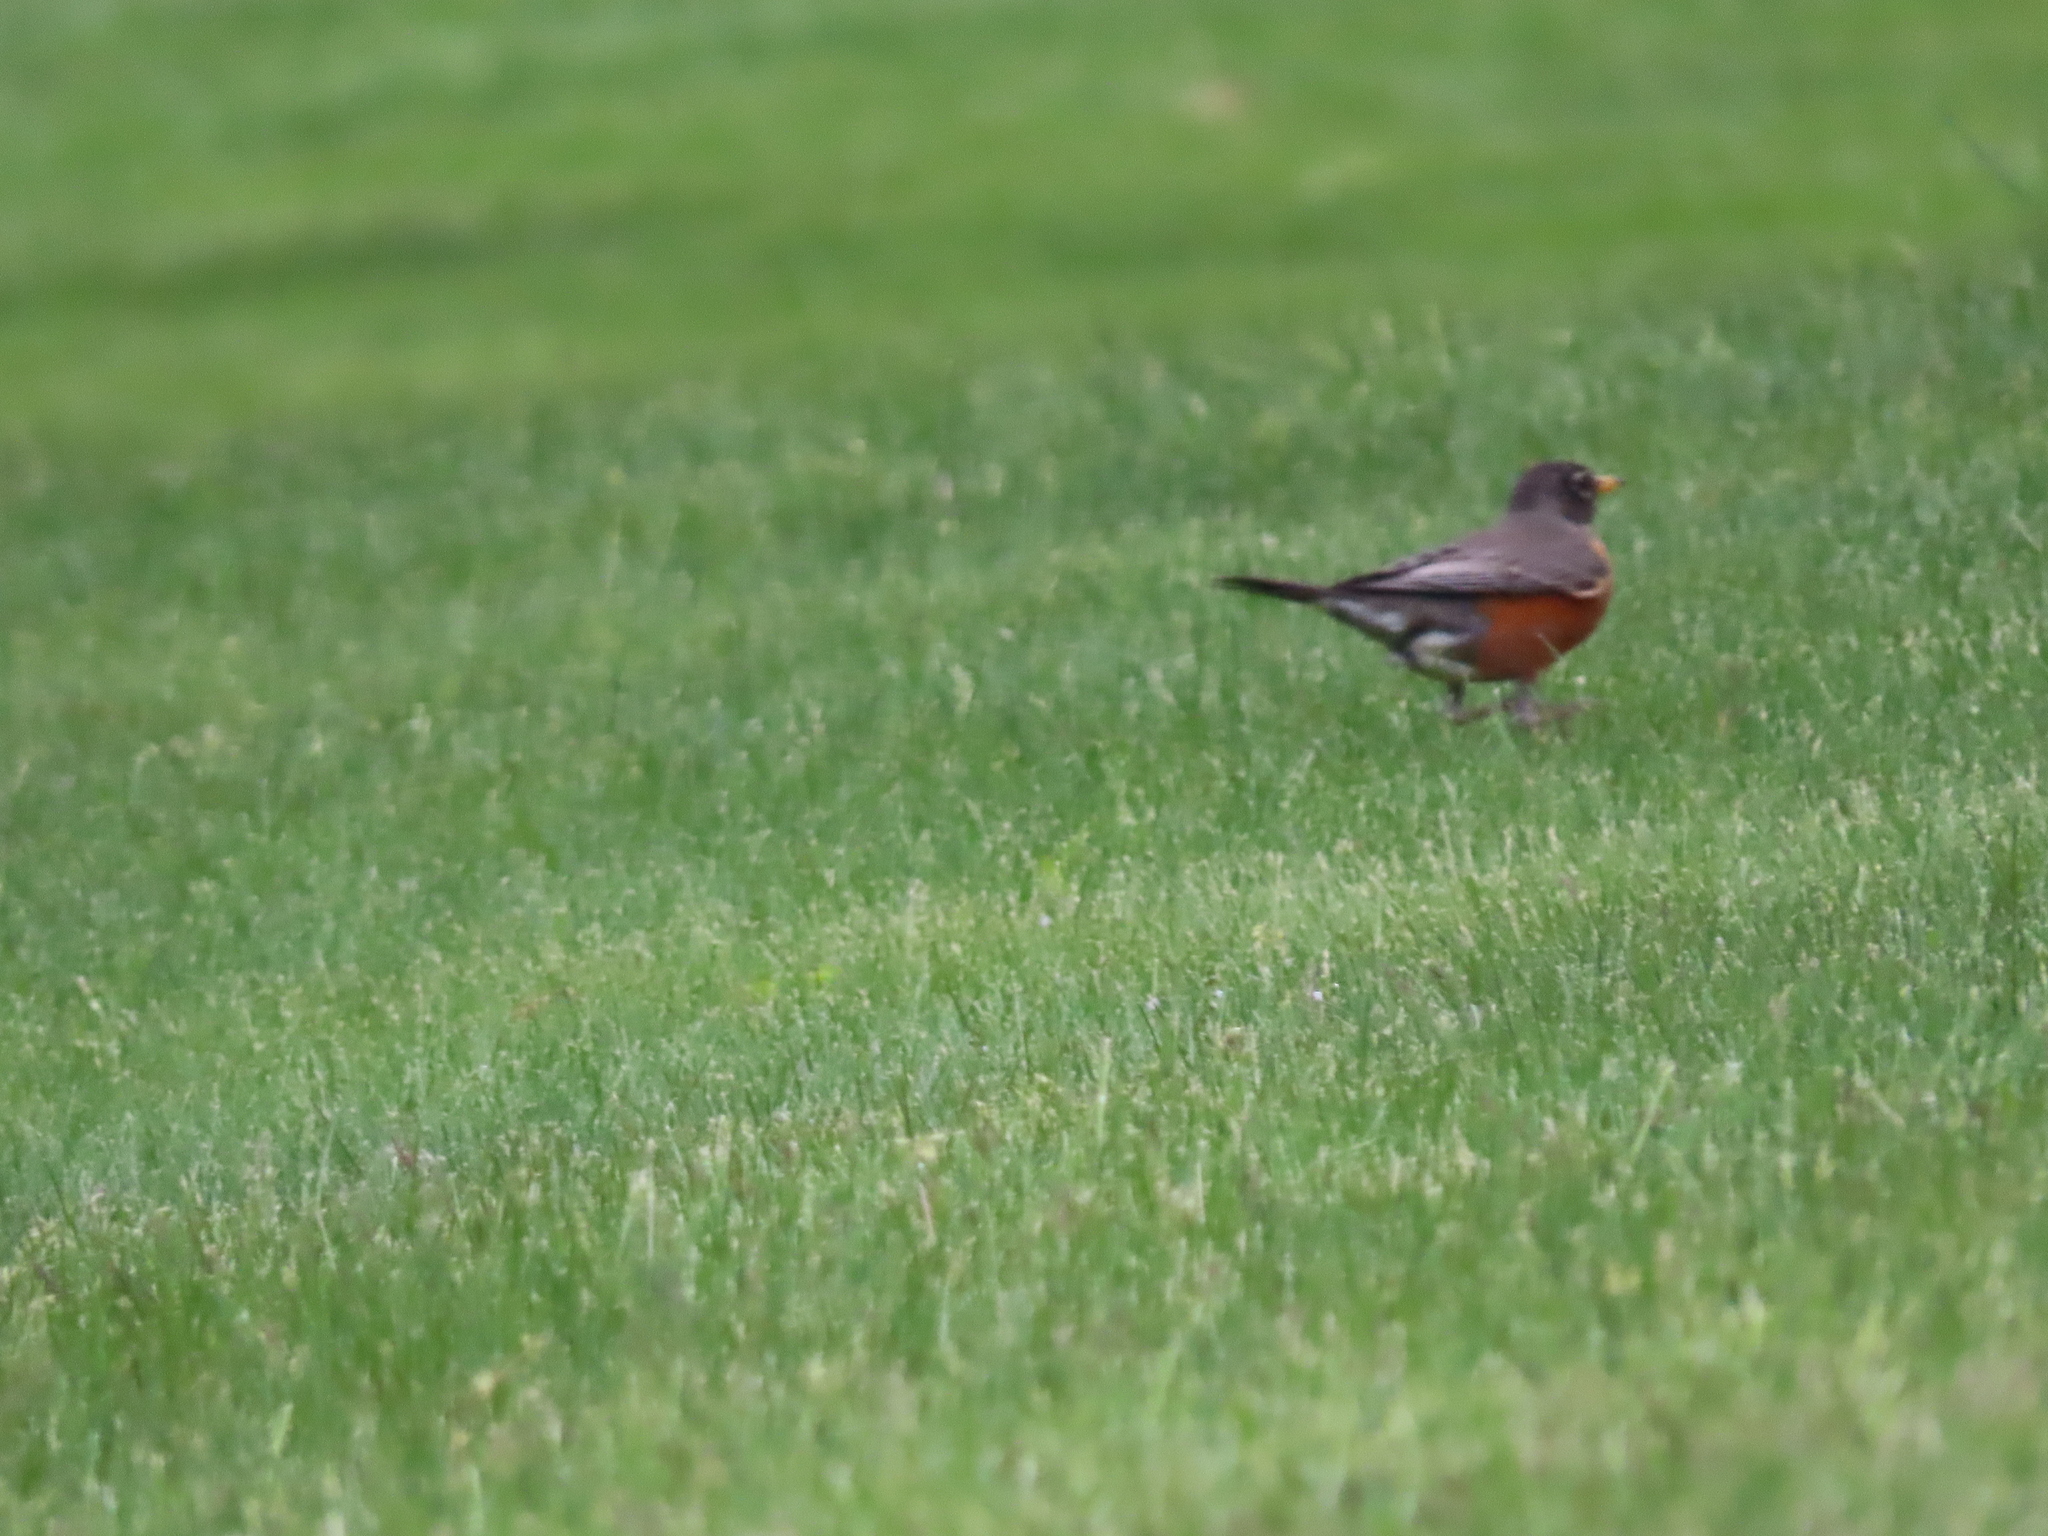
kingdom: Animalia
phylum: Chordata
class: Aves
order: Passeriformes
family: Turdidae
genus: Turdus
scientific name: Turdus migratorius
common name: American robin
